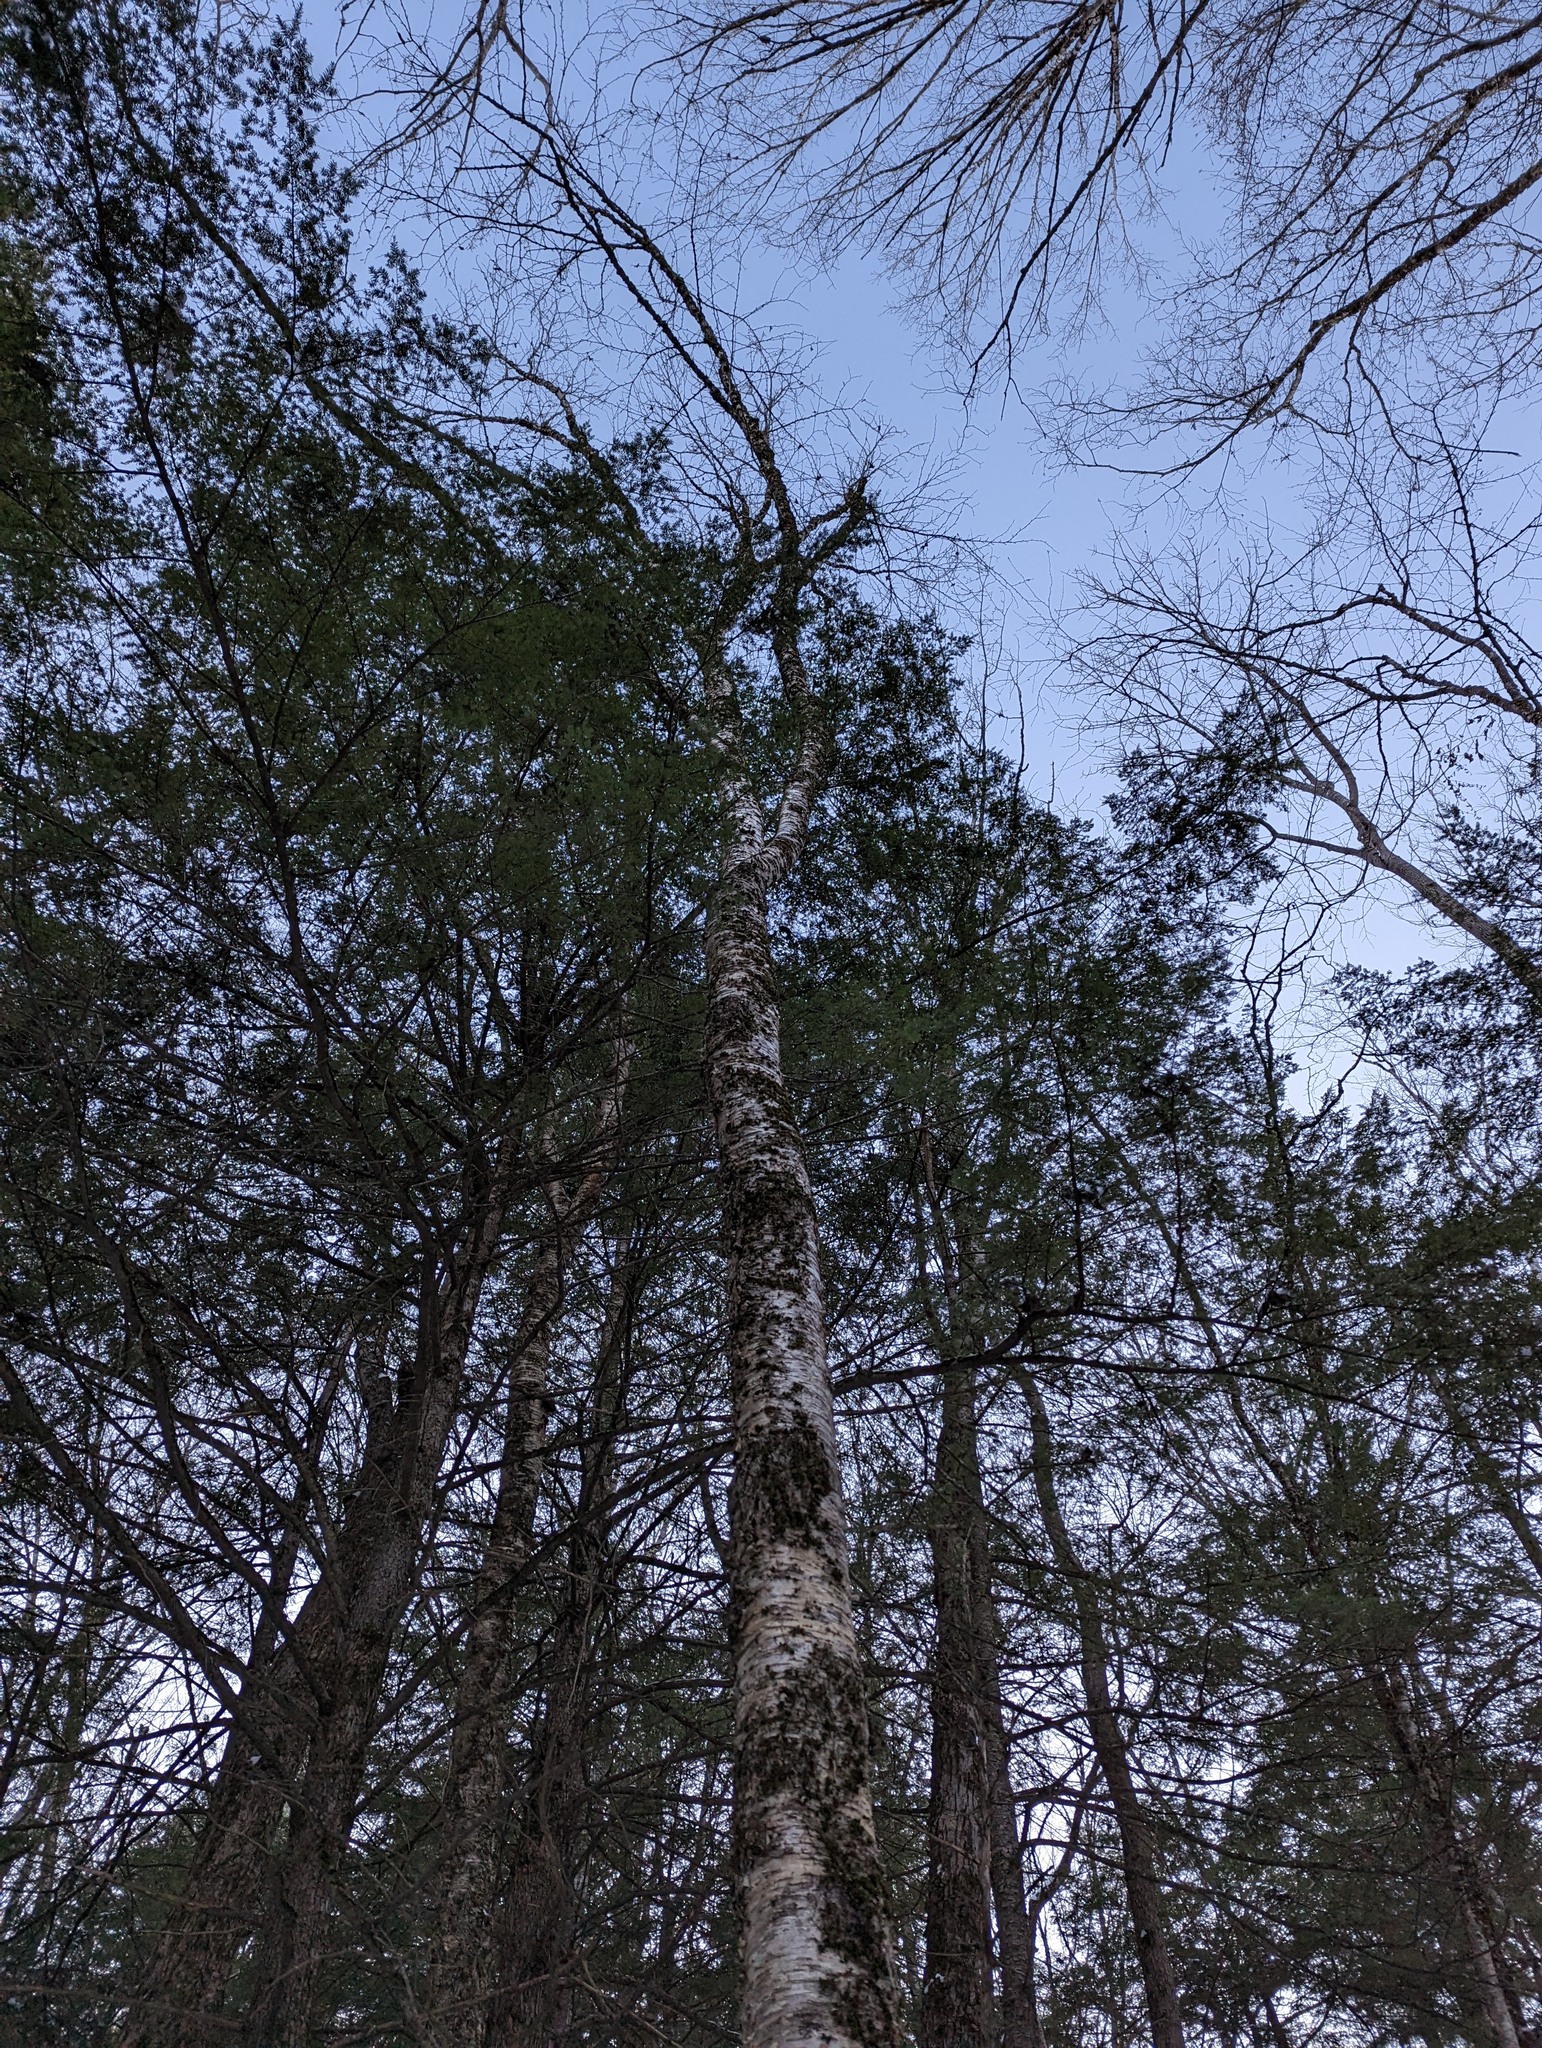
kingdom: Plantae
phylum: Tracheophyta
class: Magnoliopsida
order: Fagales
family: Betulaceae
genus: Betula
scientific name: Betula alleghaniensis
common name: Yellow birch
